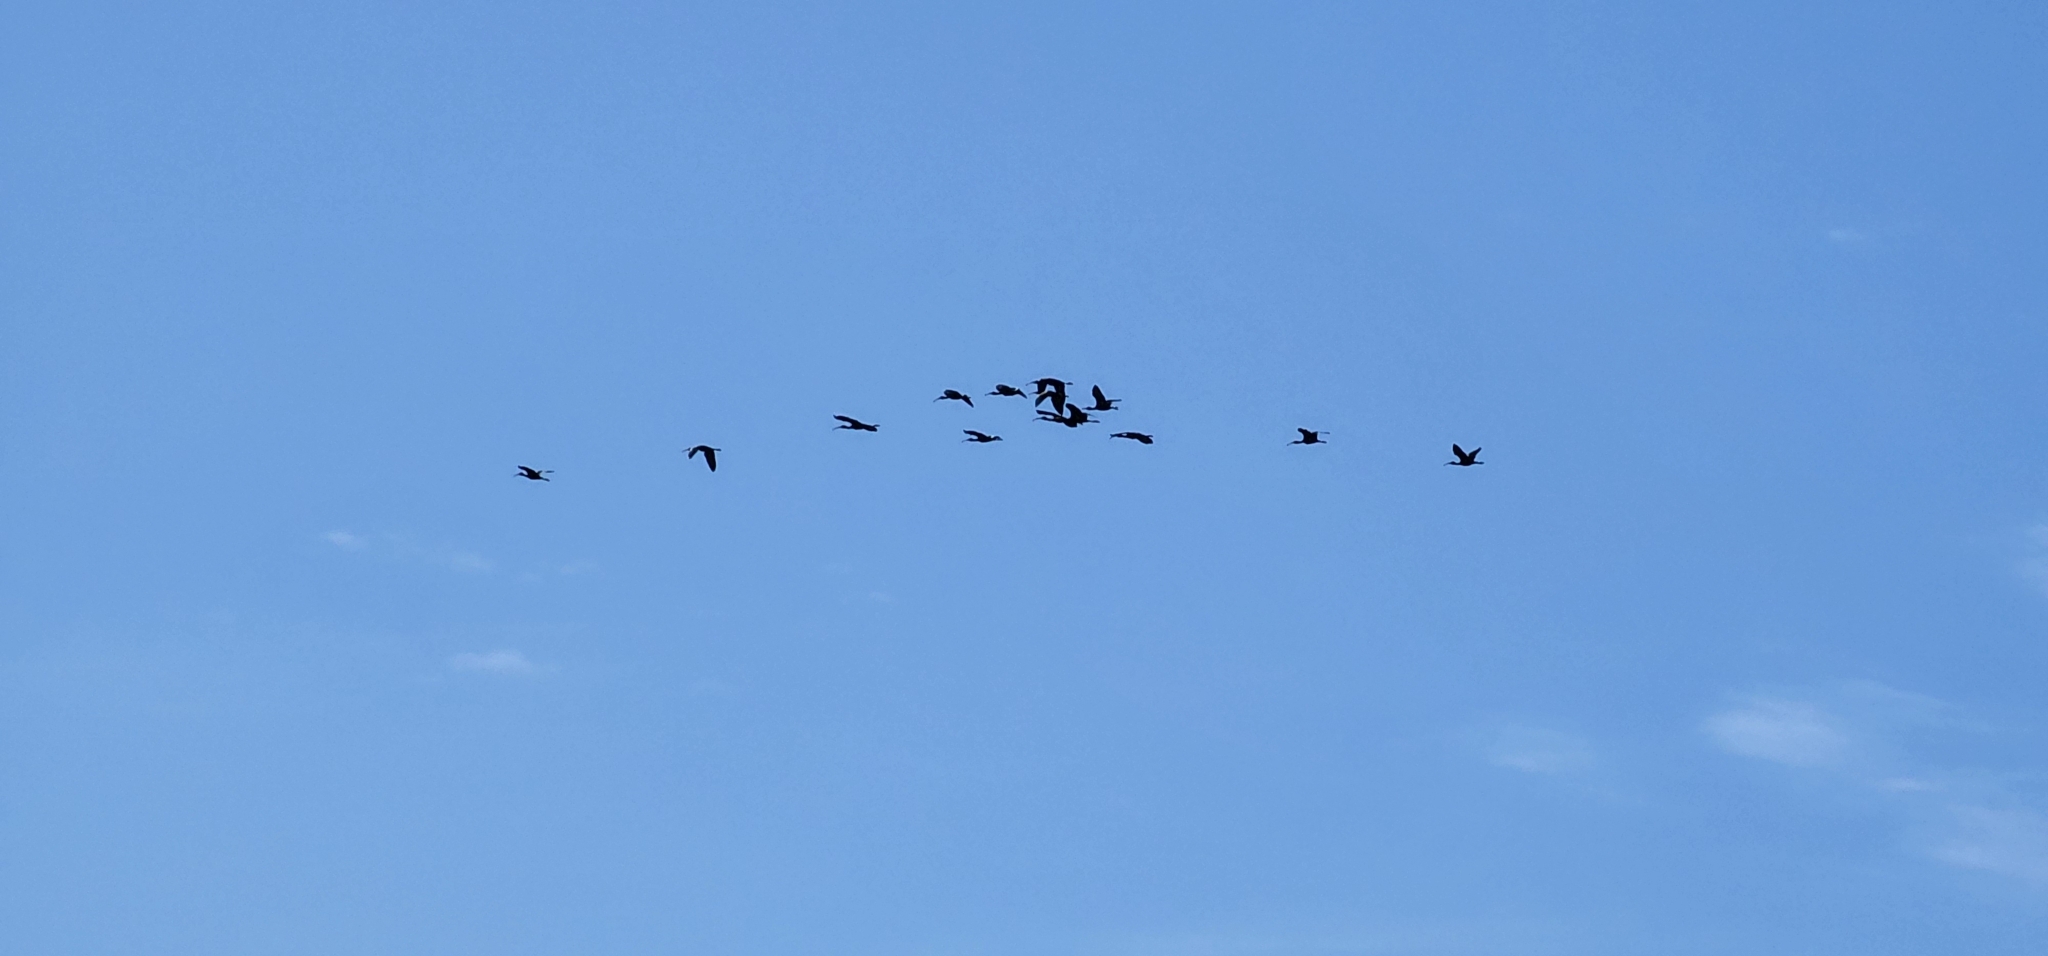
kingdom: Animalia
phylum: Chordata
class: Aves
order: Pelecaniformes
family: Threskiornithidae
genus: Plegadis
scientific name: Plegadis chihi
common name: White-faced ibis
